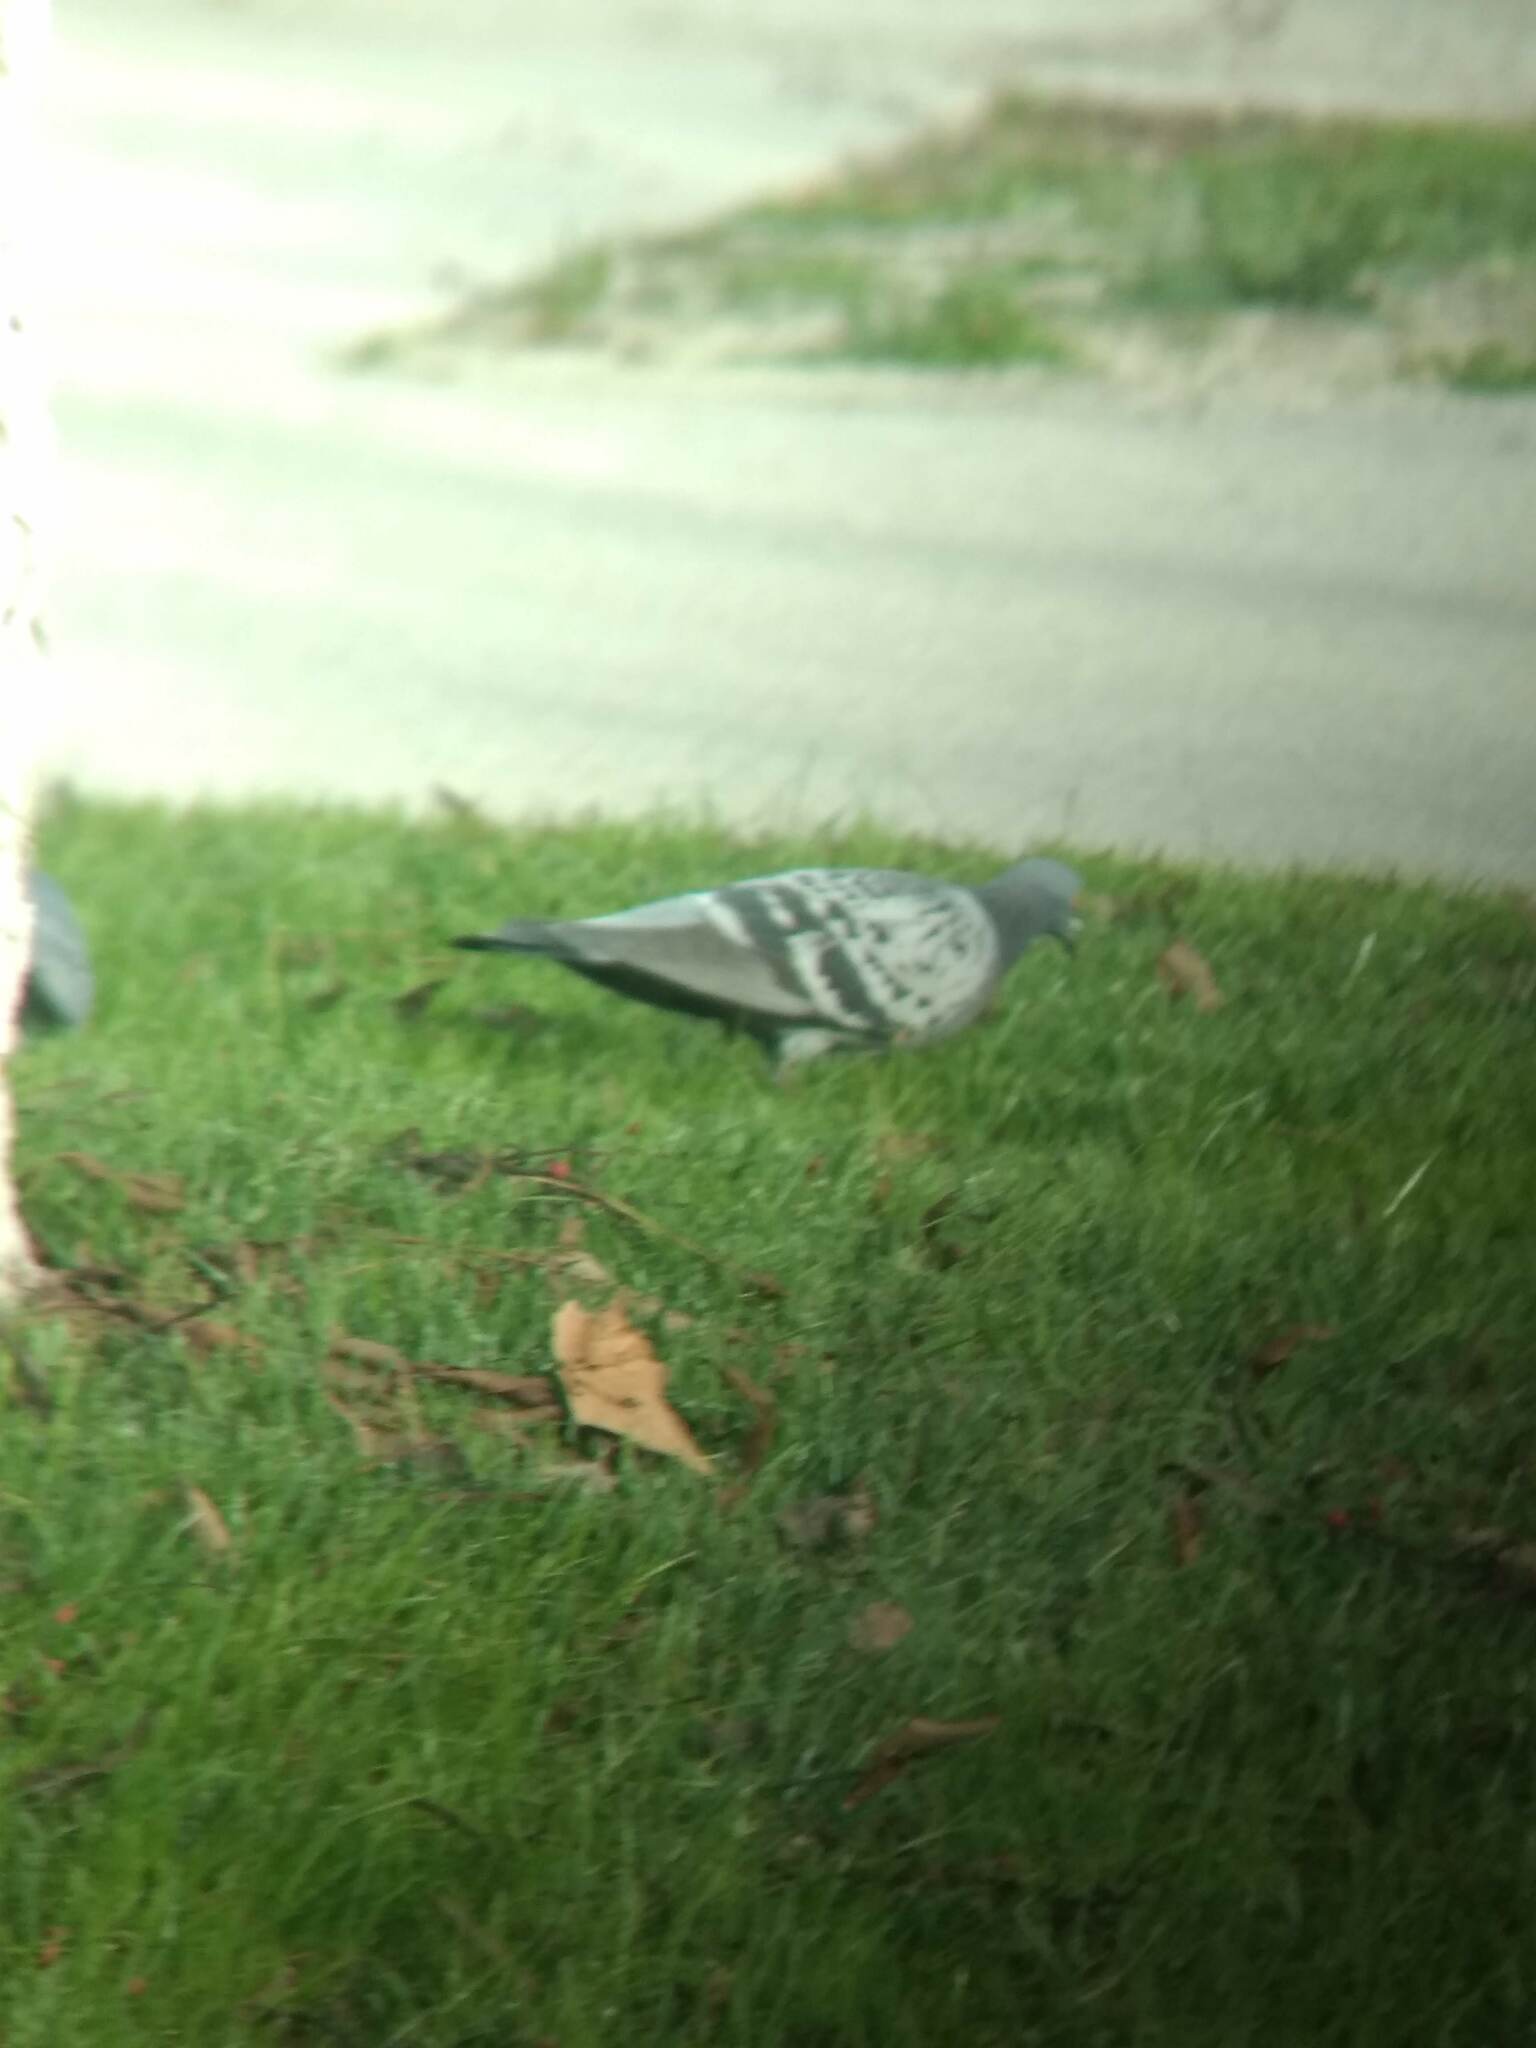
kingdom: Animalia
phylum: Chordata
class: Aves
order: Columbiformes
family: Columbidae
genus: Columba
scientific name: Columba livia
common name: Rock pigeon
